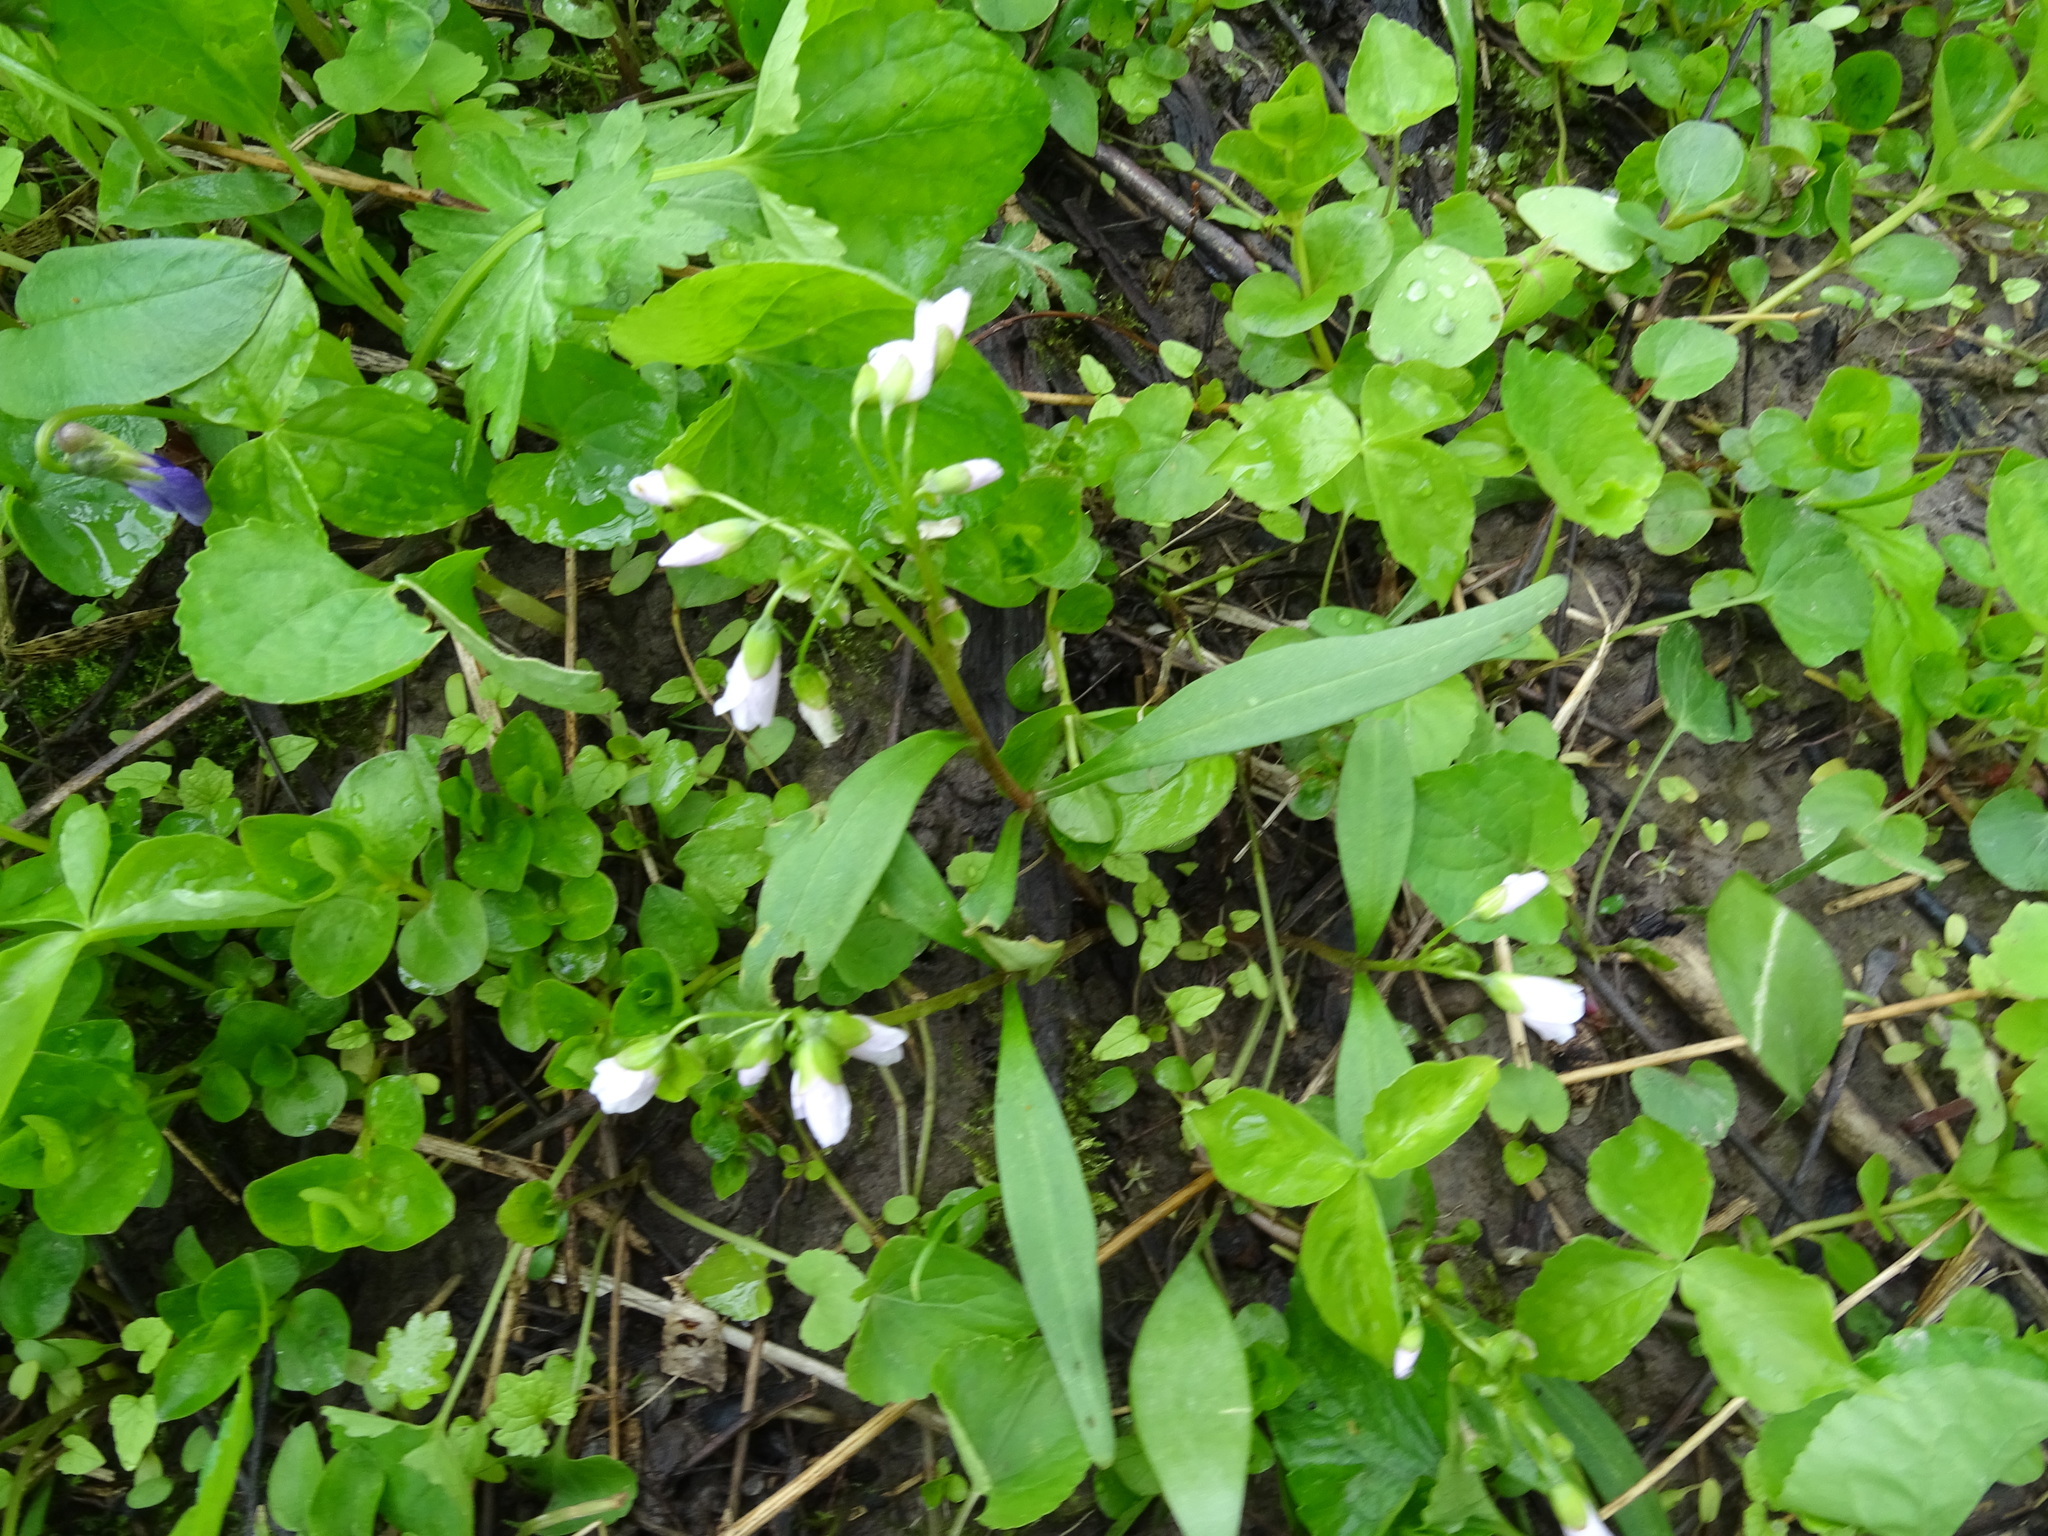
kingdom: Plantae
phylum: Tracheophyta
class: Magnoliopsida
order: Caryophyllales
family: Montiaceae
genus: Claytonia
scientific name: Claytonia virginica
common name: Virginia springbeauty
